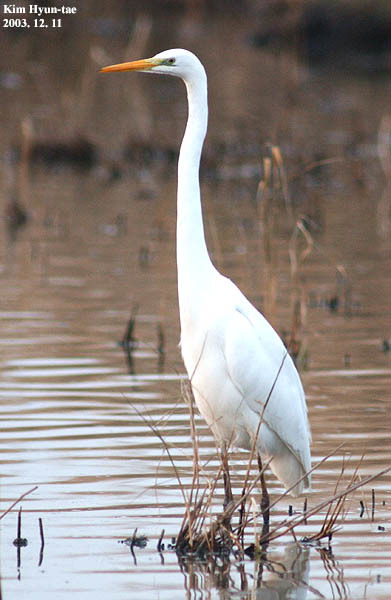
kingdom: Animalia
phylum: Chordata
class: Aves
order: Pelecaniformes
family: Ardeidae
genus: Ardea
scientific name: Ardea alba
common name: Great egret
